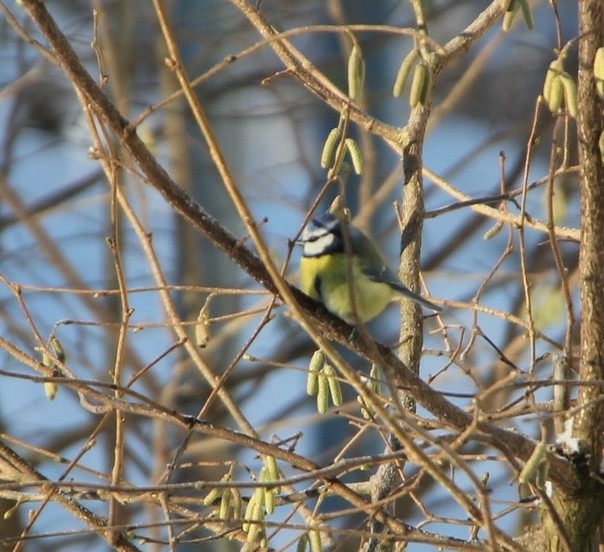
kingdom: Animalia
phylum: Chordata
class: Aves
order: Passeriformes
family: Paridae
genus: Cyanistes
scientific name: Cyanistes caeruleus
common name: Eurasian blue tit
